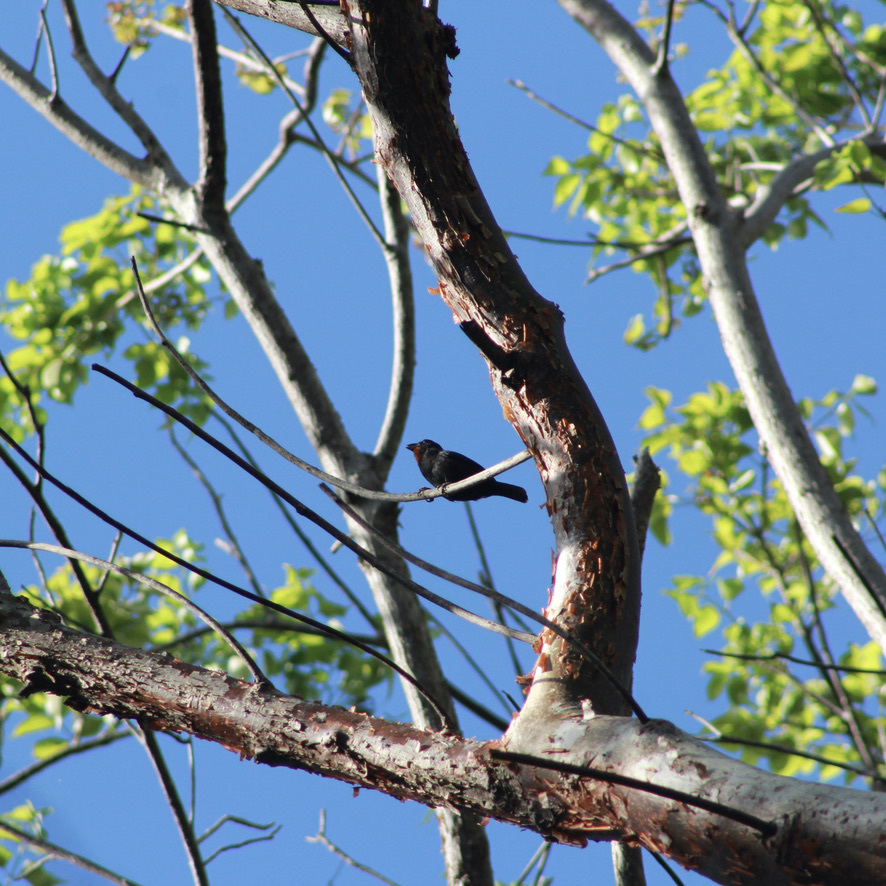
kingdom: Animalia
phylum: Chordata
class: Aves
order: Passeriformes
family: Thraupidae
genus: Loxigilla
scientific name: Loxigilla noctis
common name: Lesser antillean bullfinch
